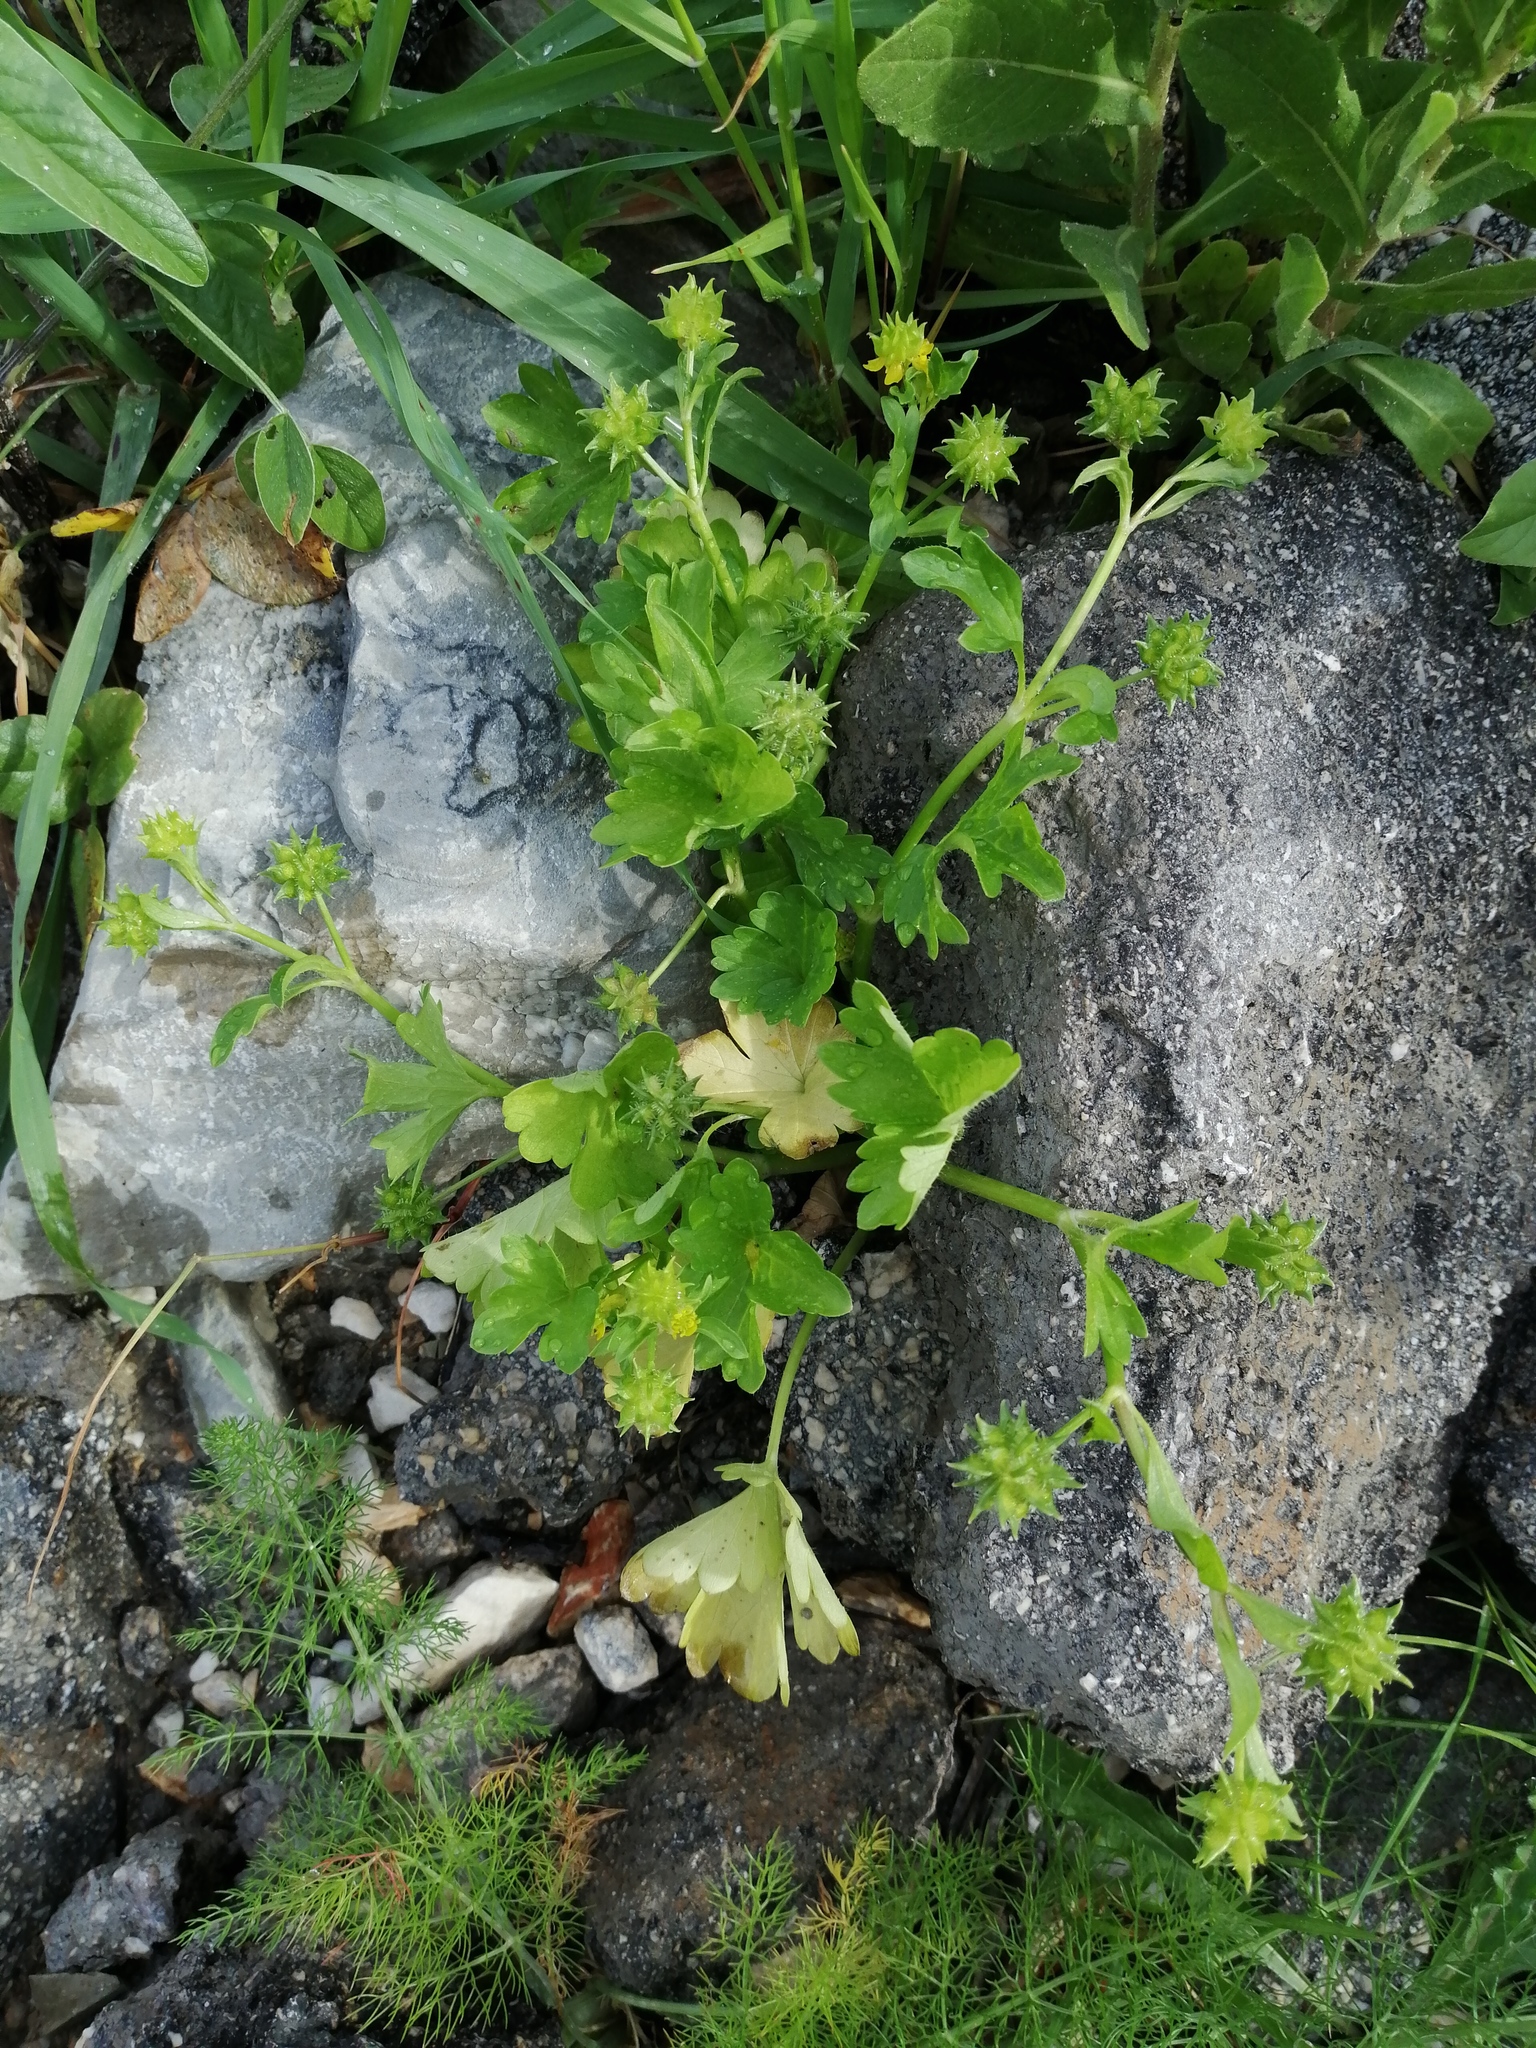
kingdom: Plantae
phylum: Tracheophyta
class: Magnoliopsida
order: Ranunculales
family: Ranunculaceae
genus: Ranunculus
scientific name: Ranunculus muricatus
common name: Rough-fruited buttercup
